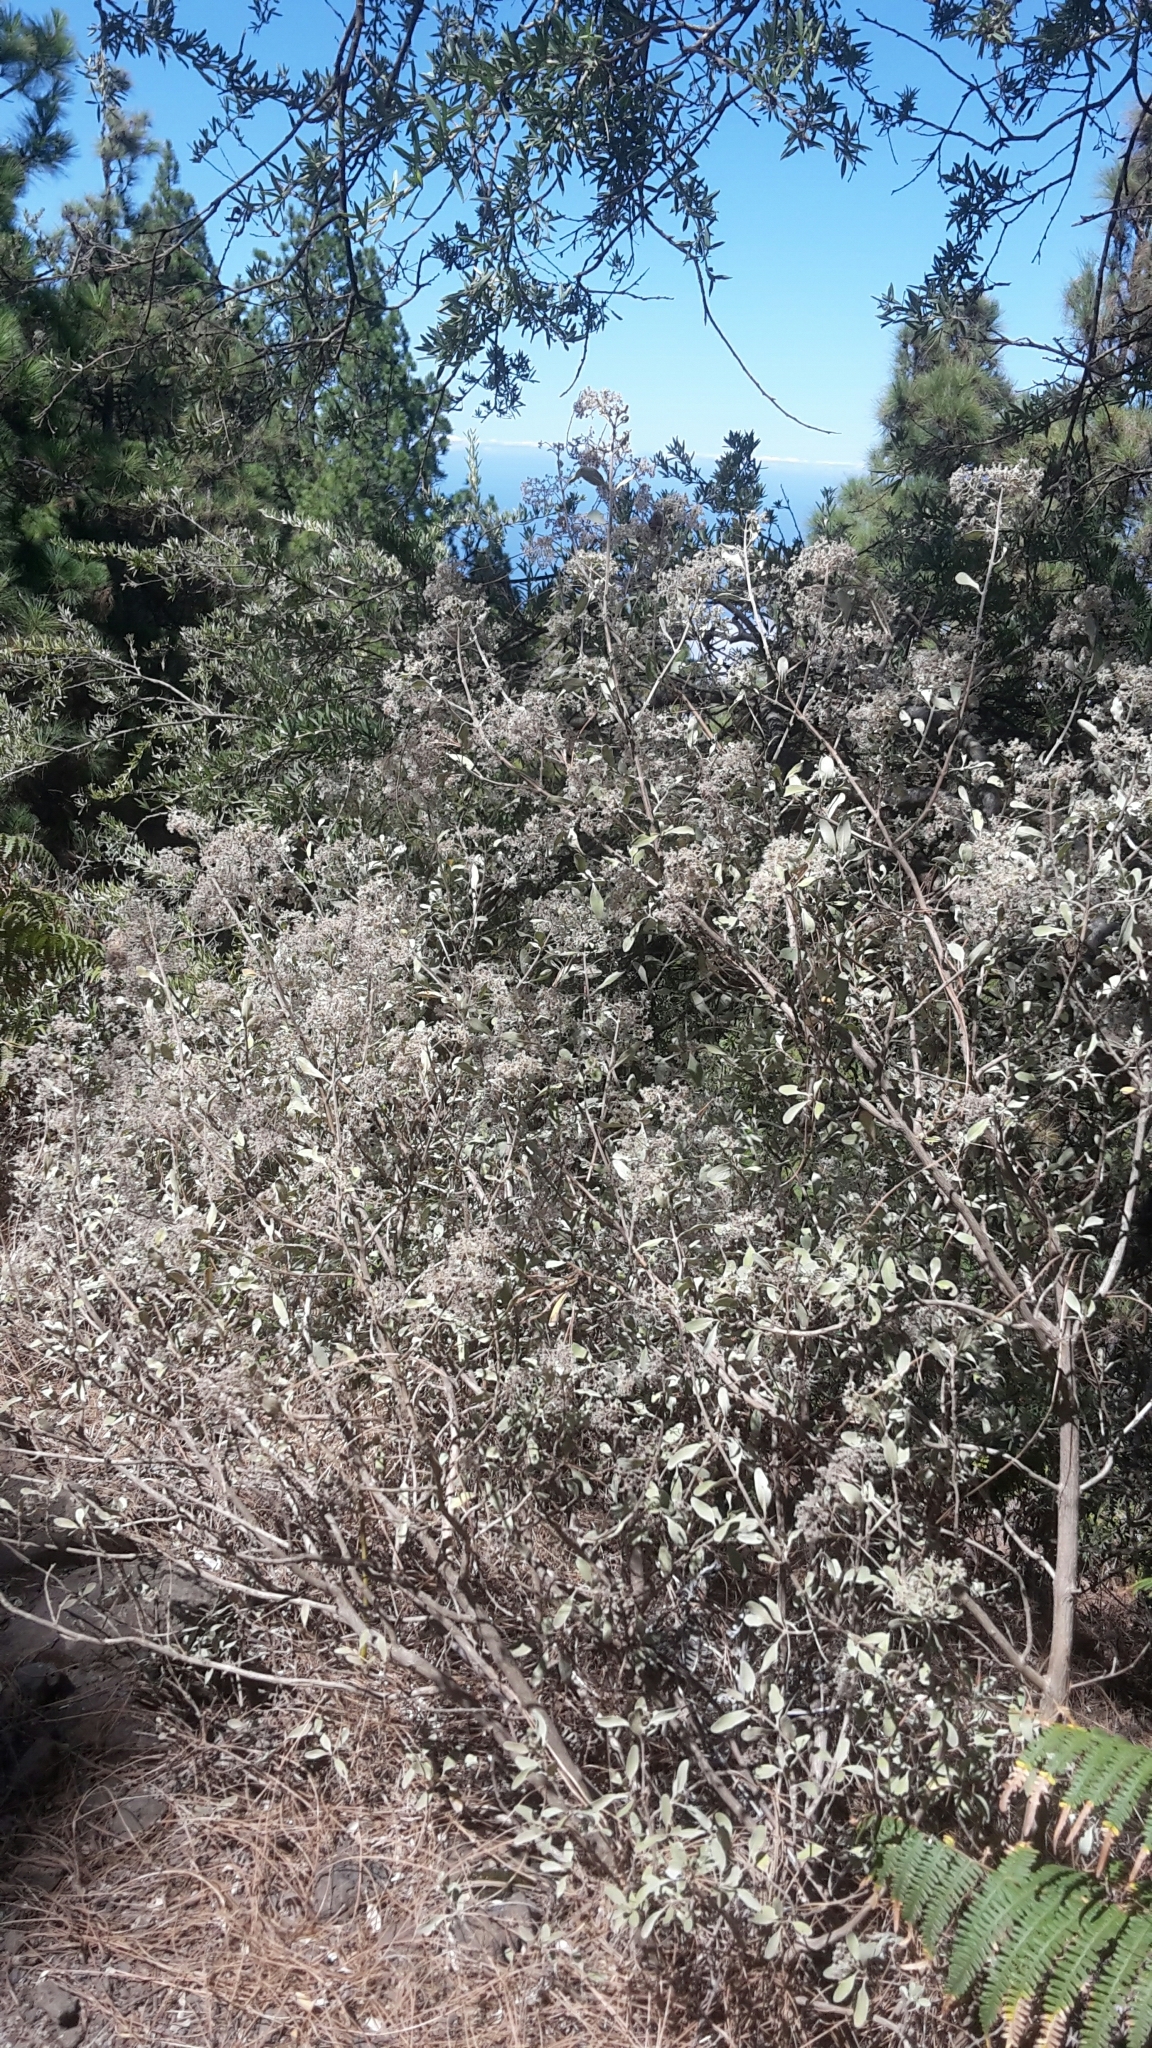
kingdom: Plantae
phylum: Tracheophyta
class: Magnoliopsida
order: Lamiales
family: Lamiaceae
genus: Bystropogon
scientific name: Bystropogon origanifolius
